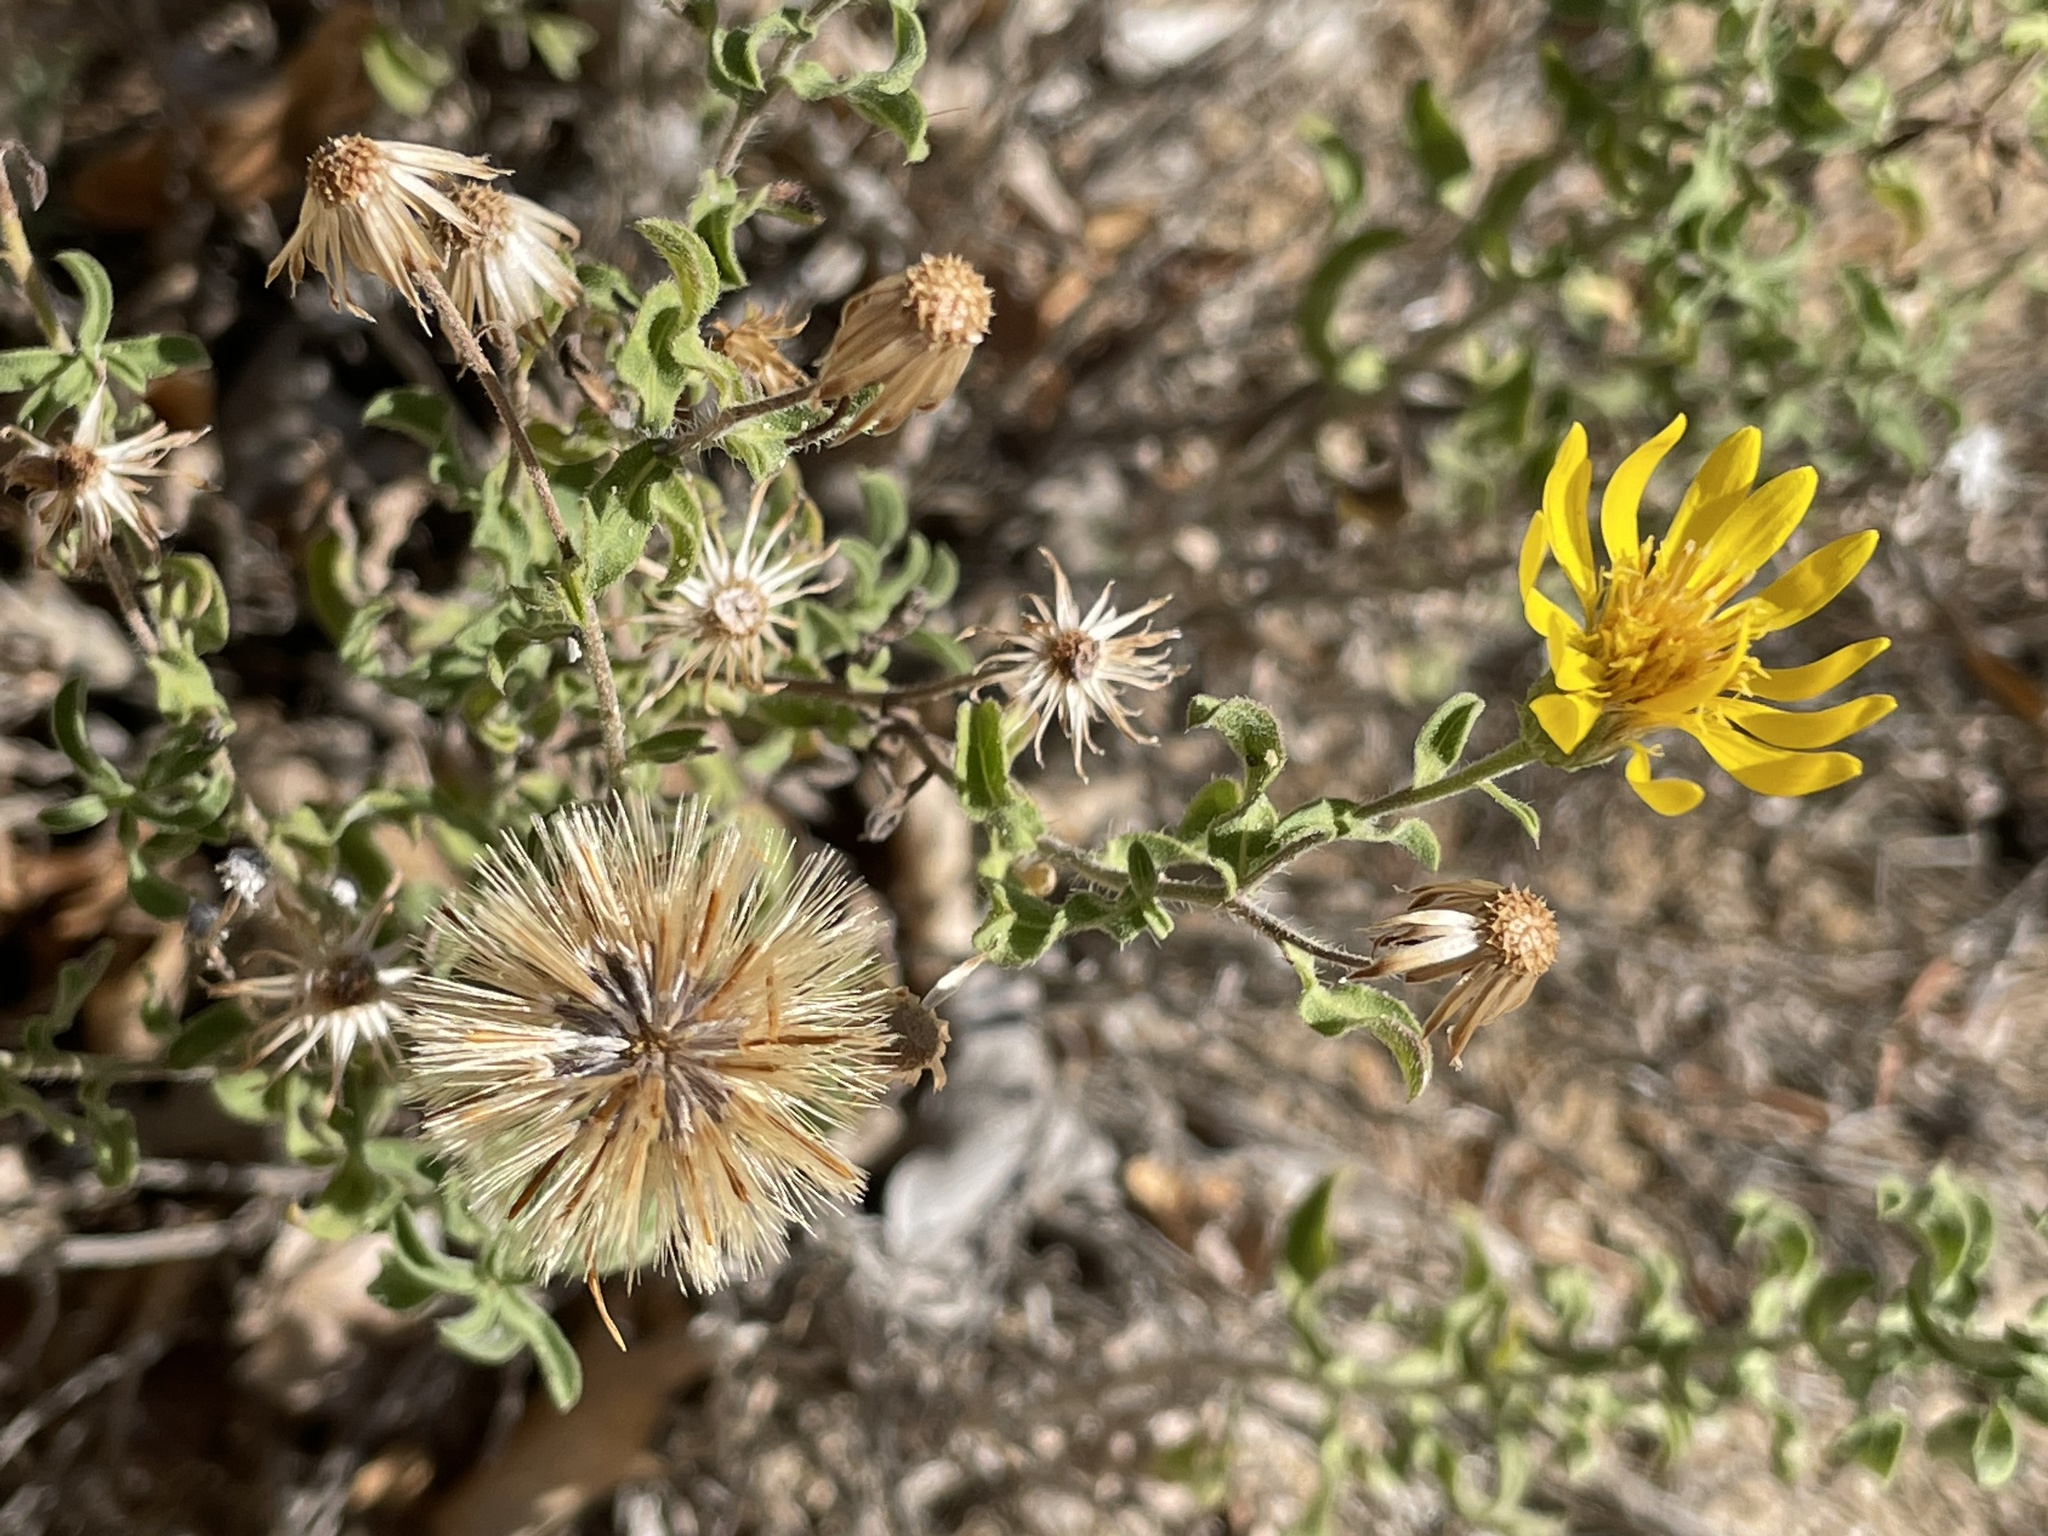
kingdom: Plantae
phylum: Tracheophyta
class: Magnoliopsida
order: Asterales
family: Asteraceae
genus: Heterotheca
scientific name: Heterotheca hirsutissima
